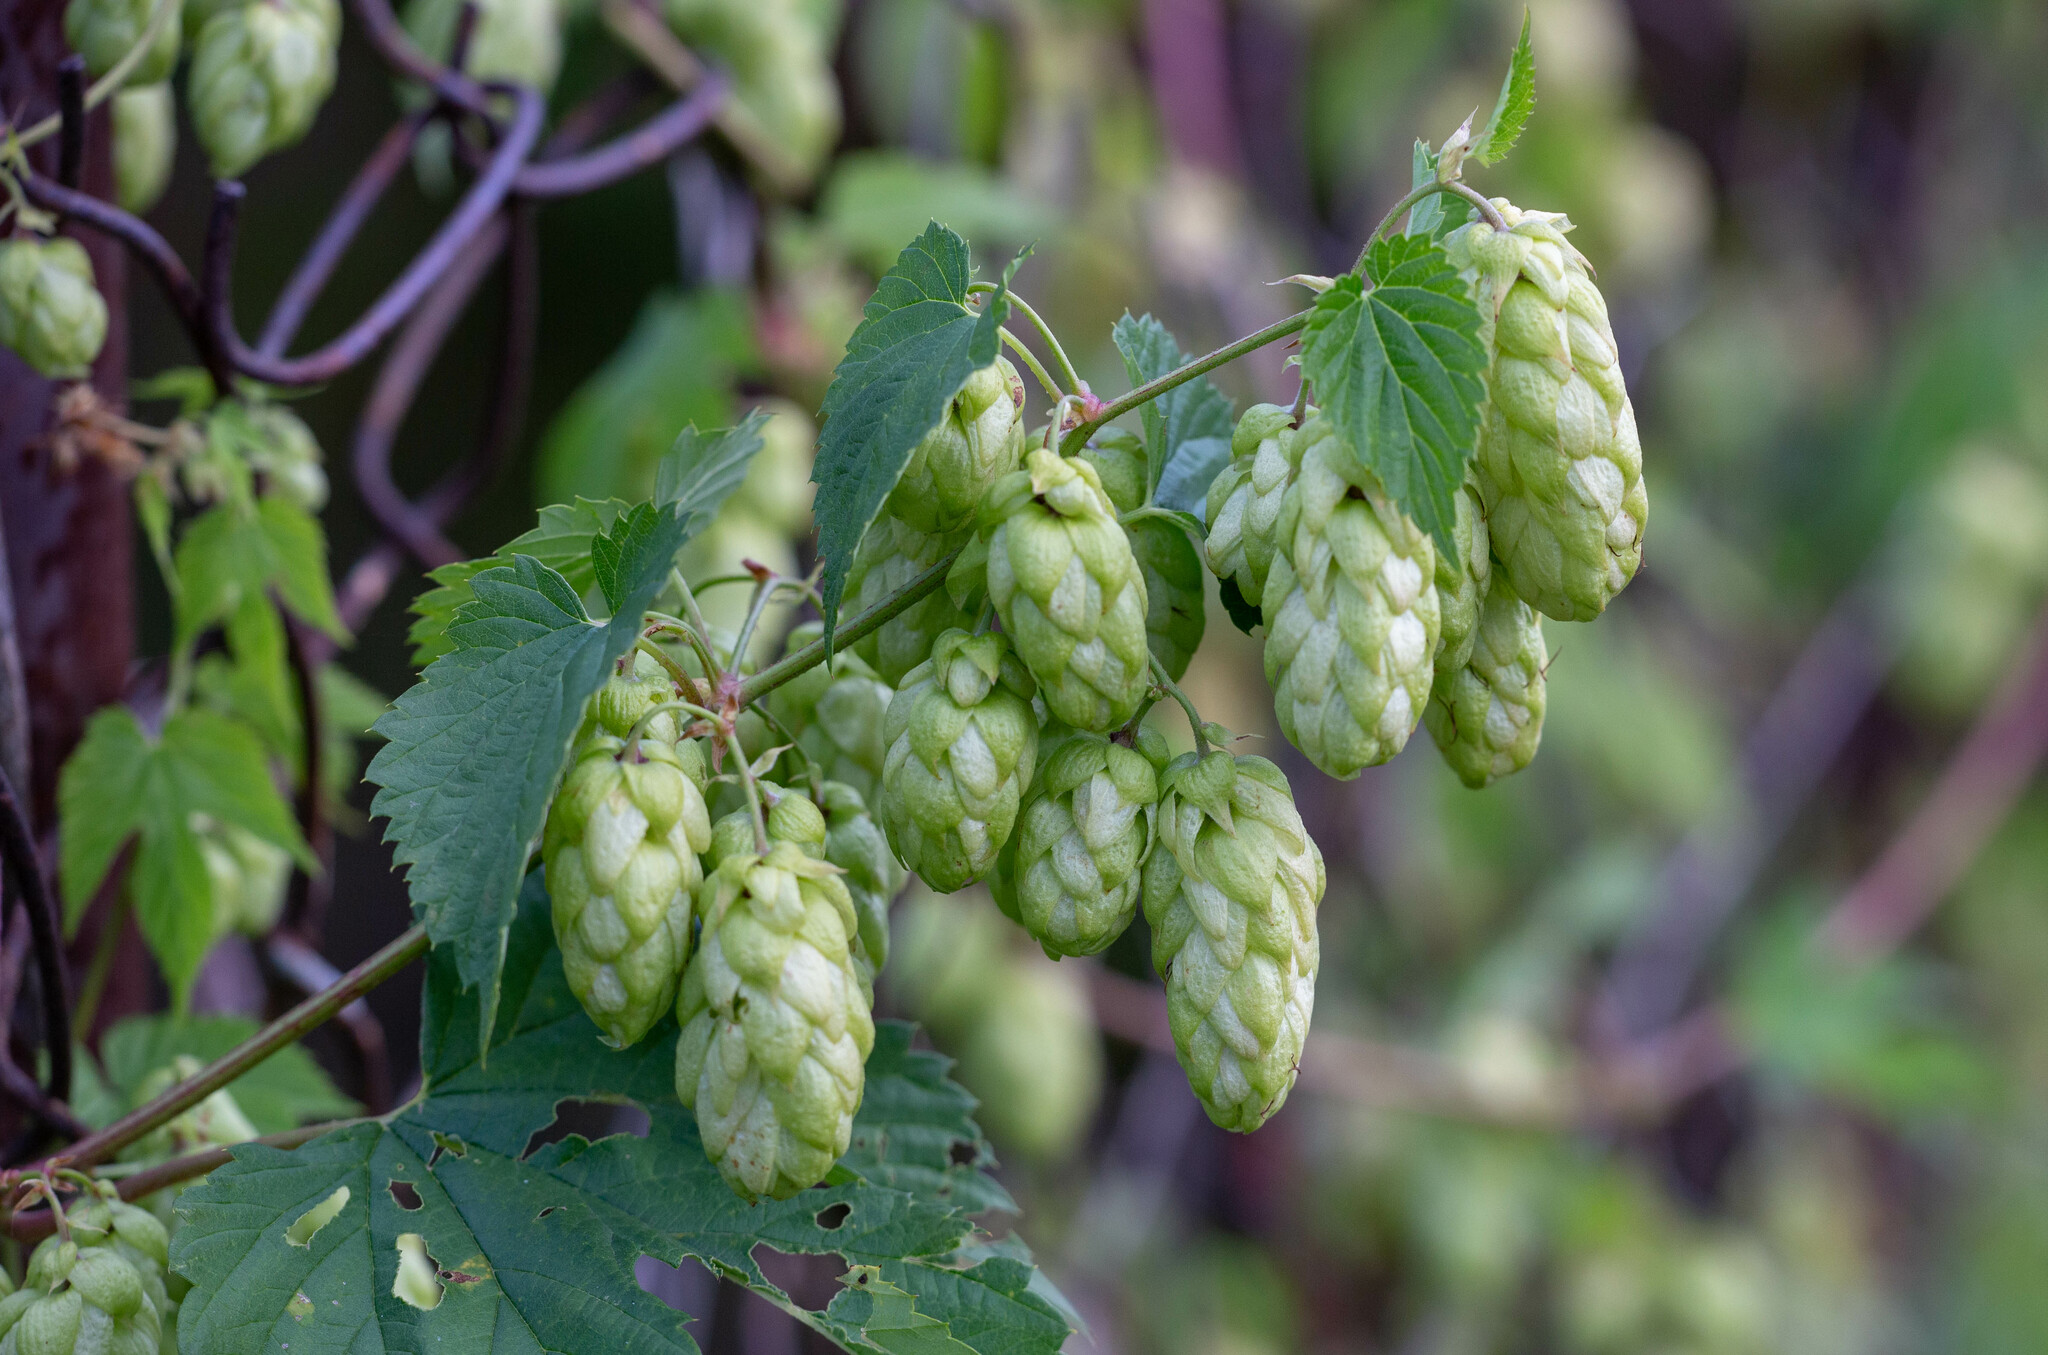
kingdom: Plantae
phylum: Tracheophyta
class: Magnoliopsida
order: Rosales
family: Cannabaceae
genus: Humulus
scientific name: Humulus lupulus
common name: Hop
